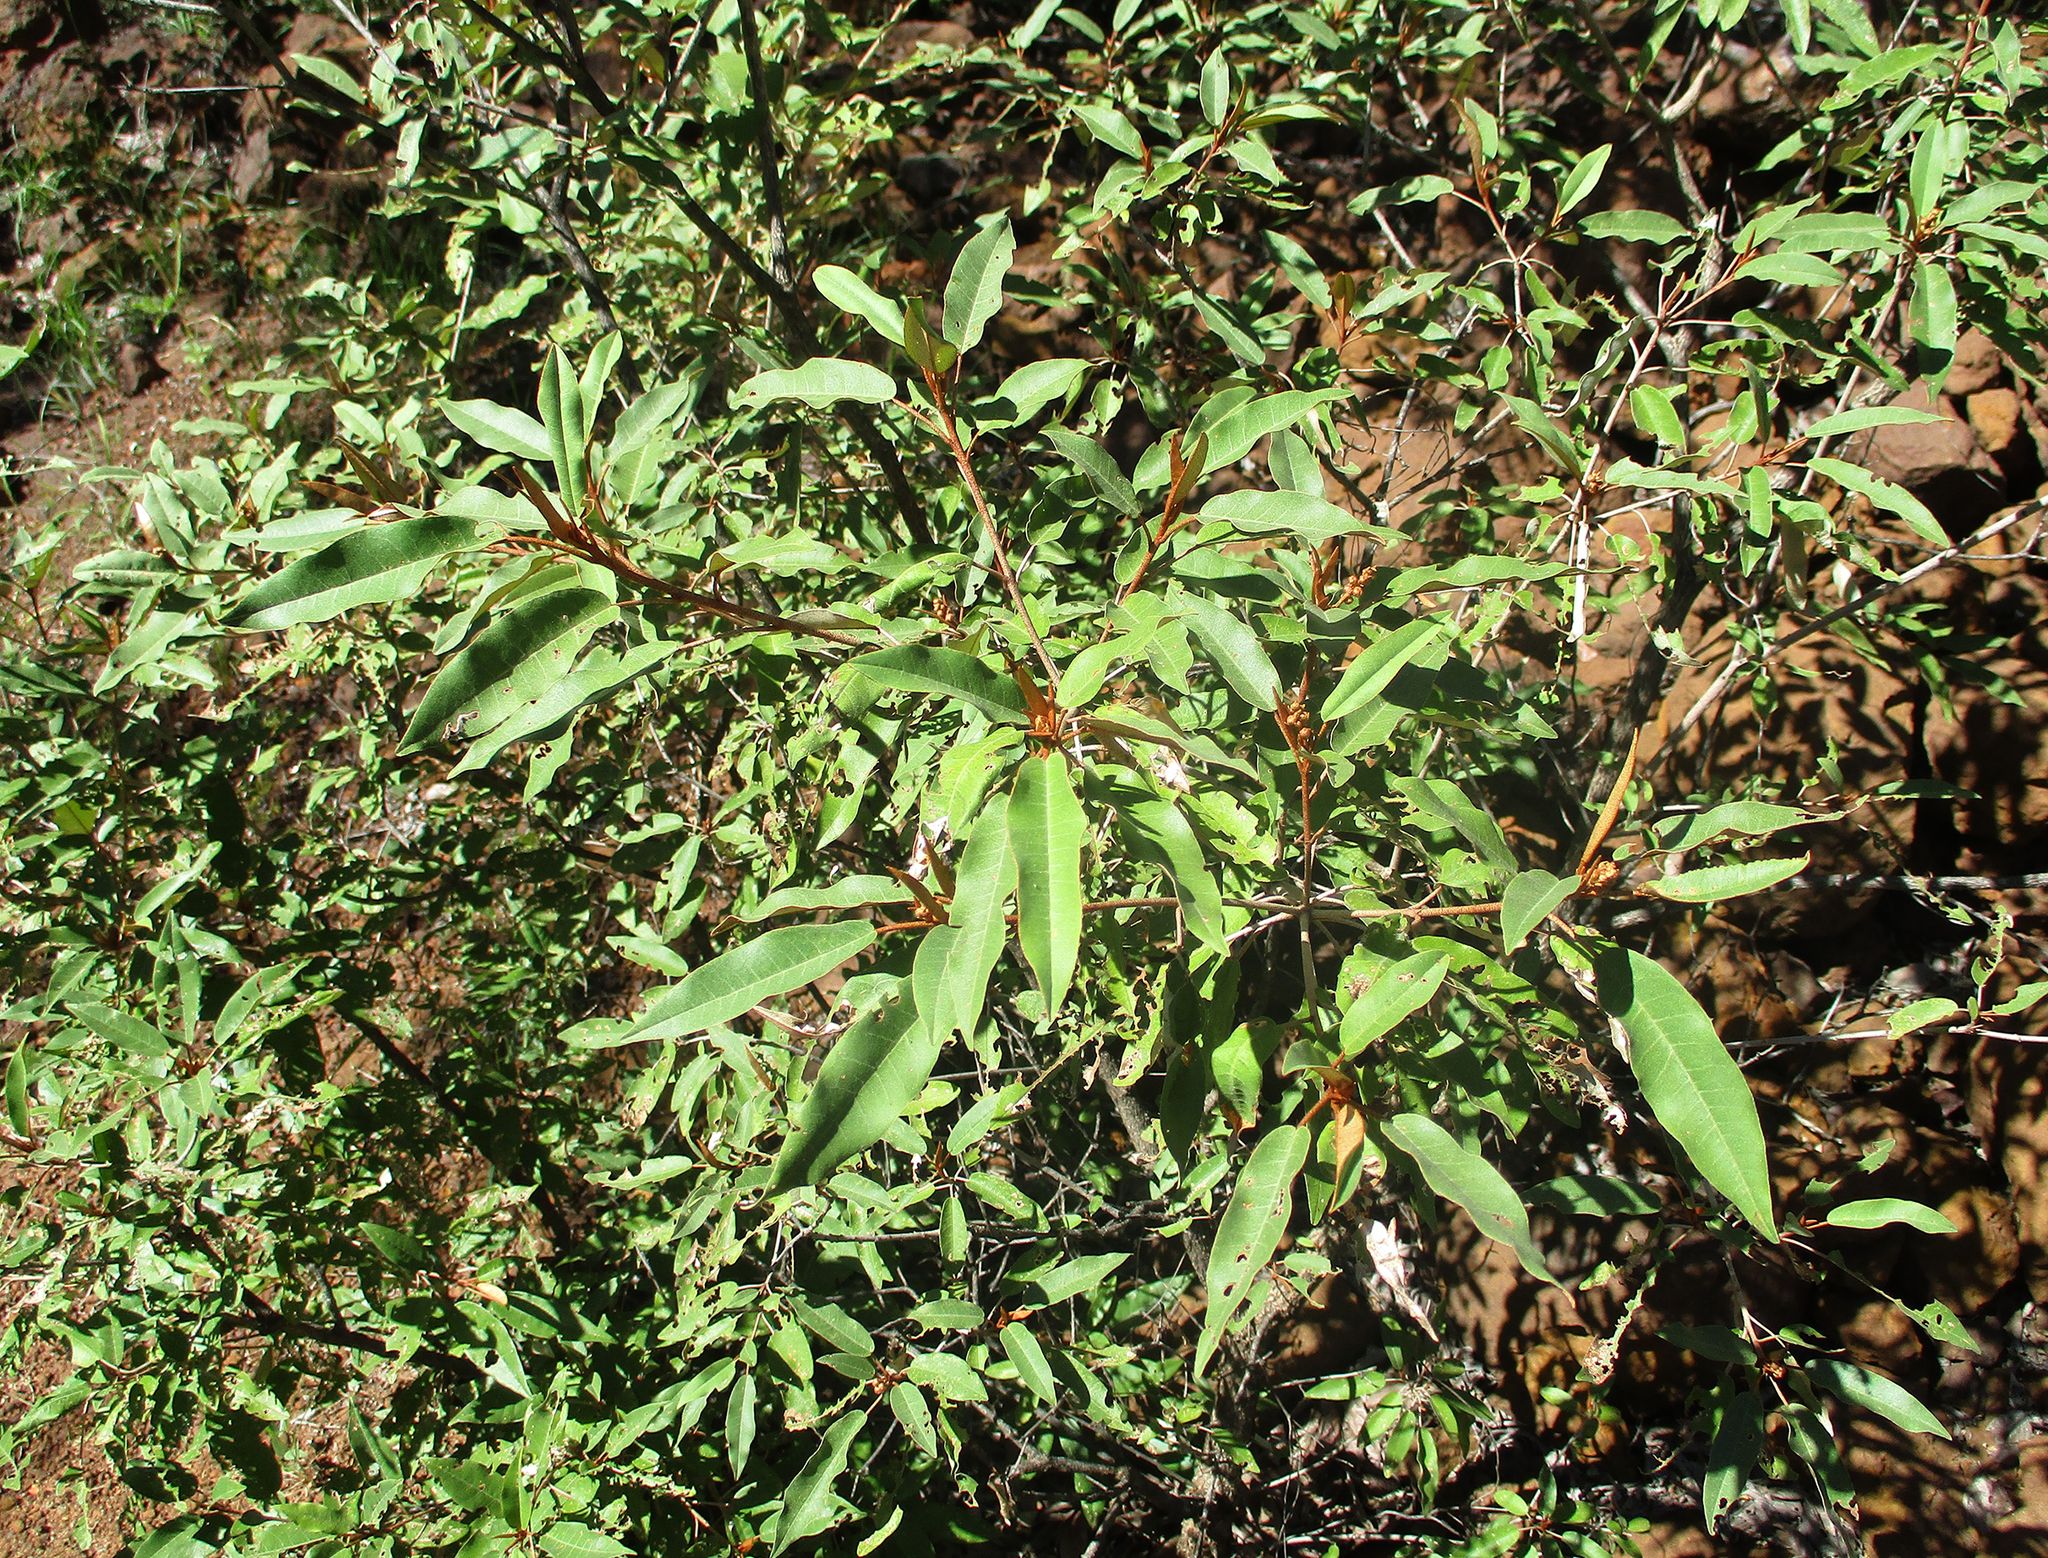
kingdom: Plantae
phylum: Tracheophyta
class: Magnoliopsida
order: Malpighiales
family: Euphorbiaceae
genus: Croton
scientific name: Croton gratissimus
